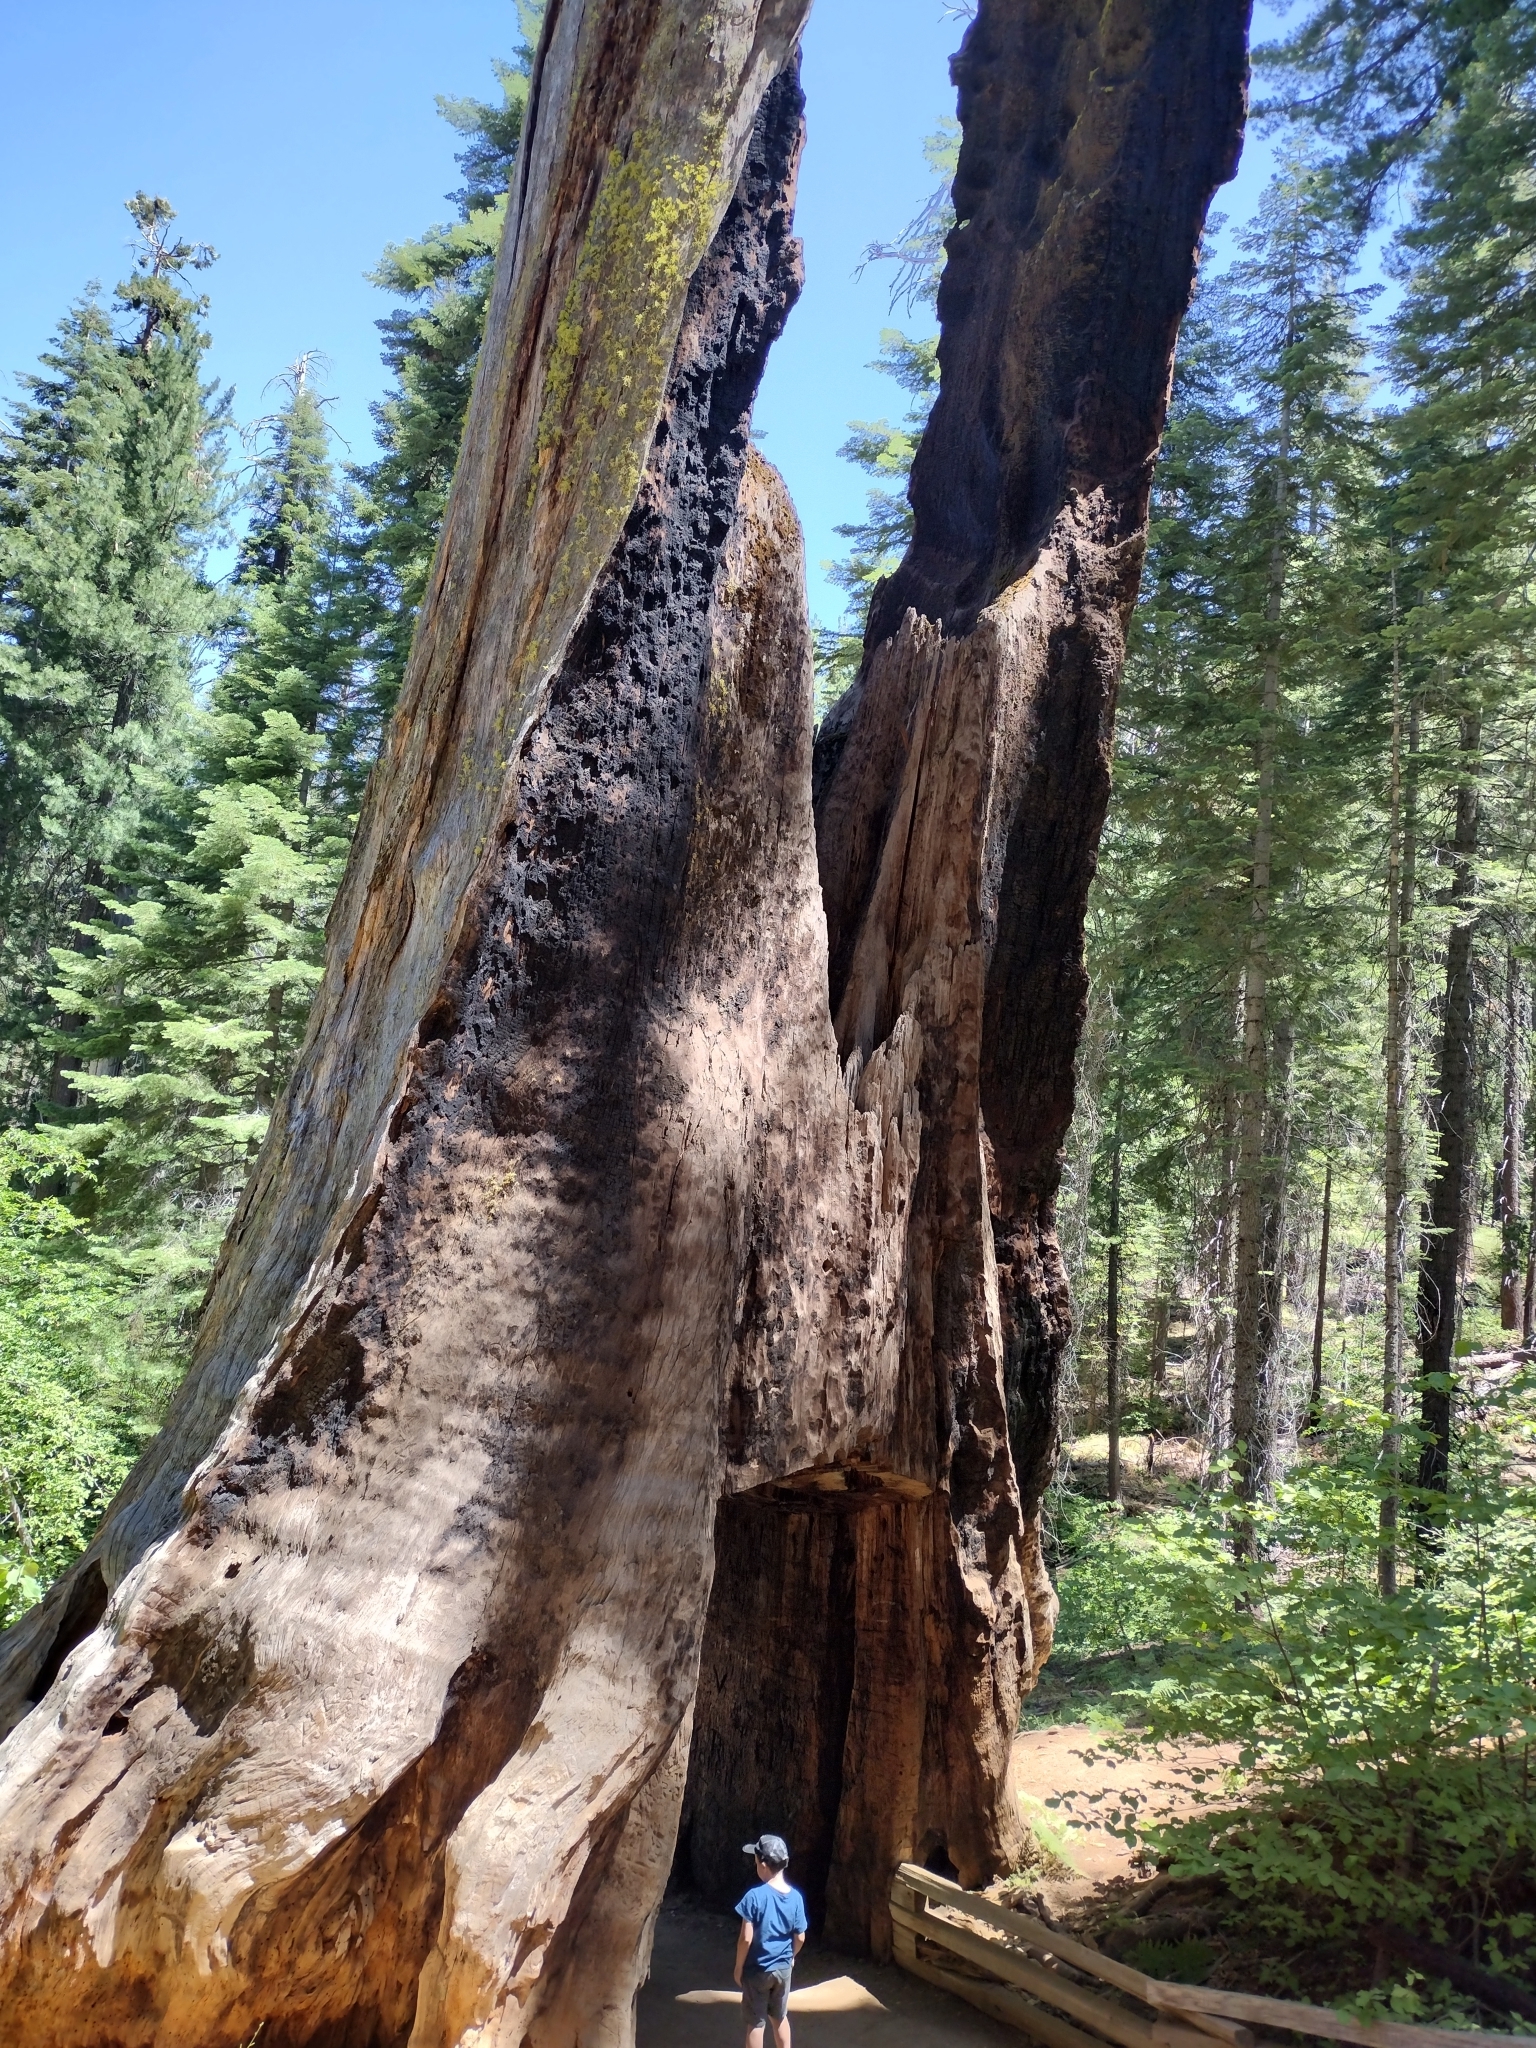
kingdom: Plantae
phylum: Tracheophyta
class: Pinopsida
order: Pinales
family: Cupressaceae
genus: Sequoiadendron
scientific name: Sequoiadendron giganteum
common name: Wellingtonia
